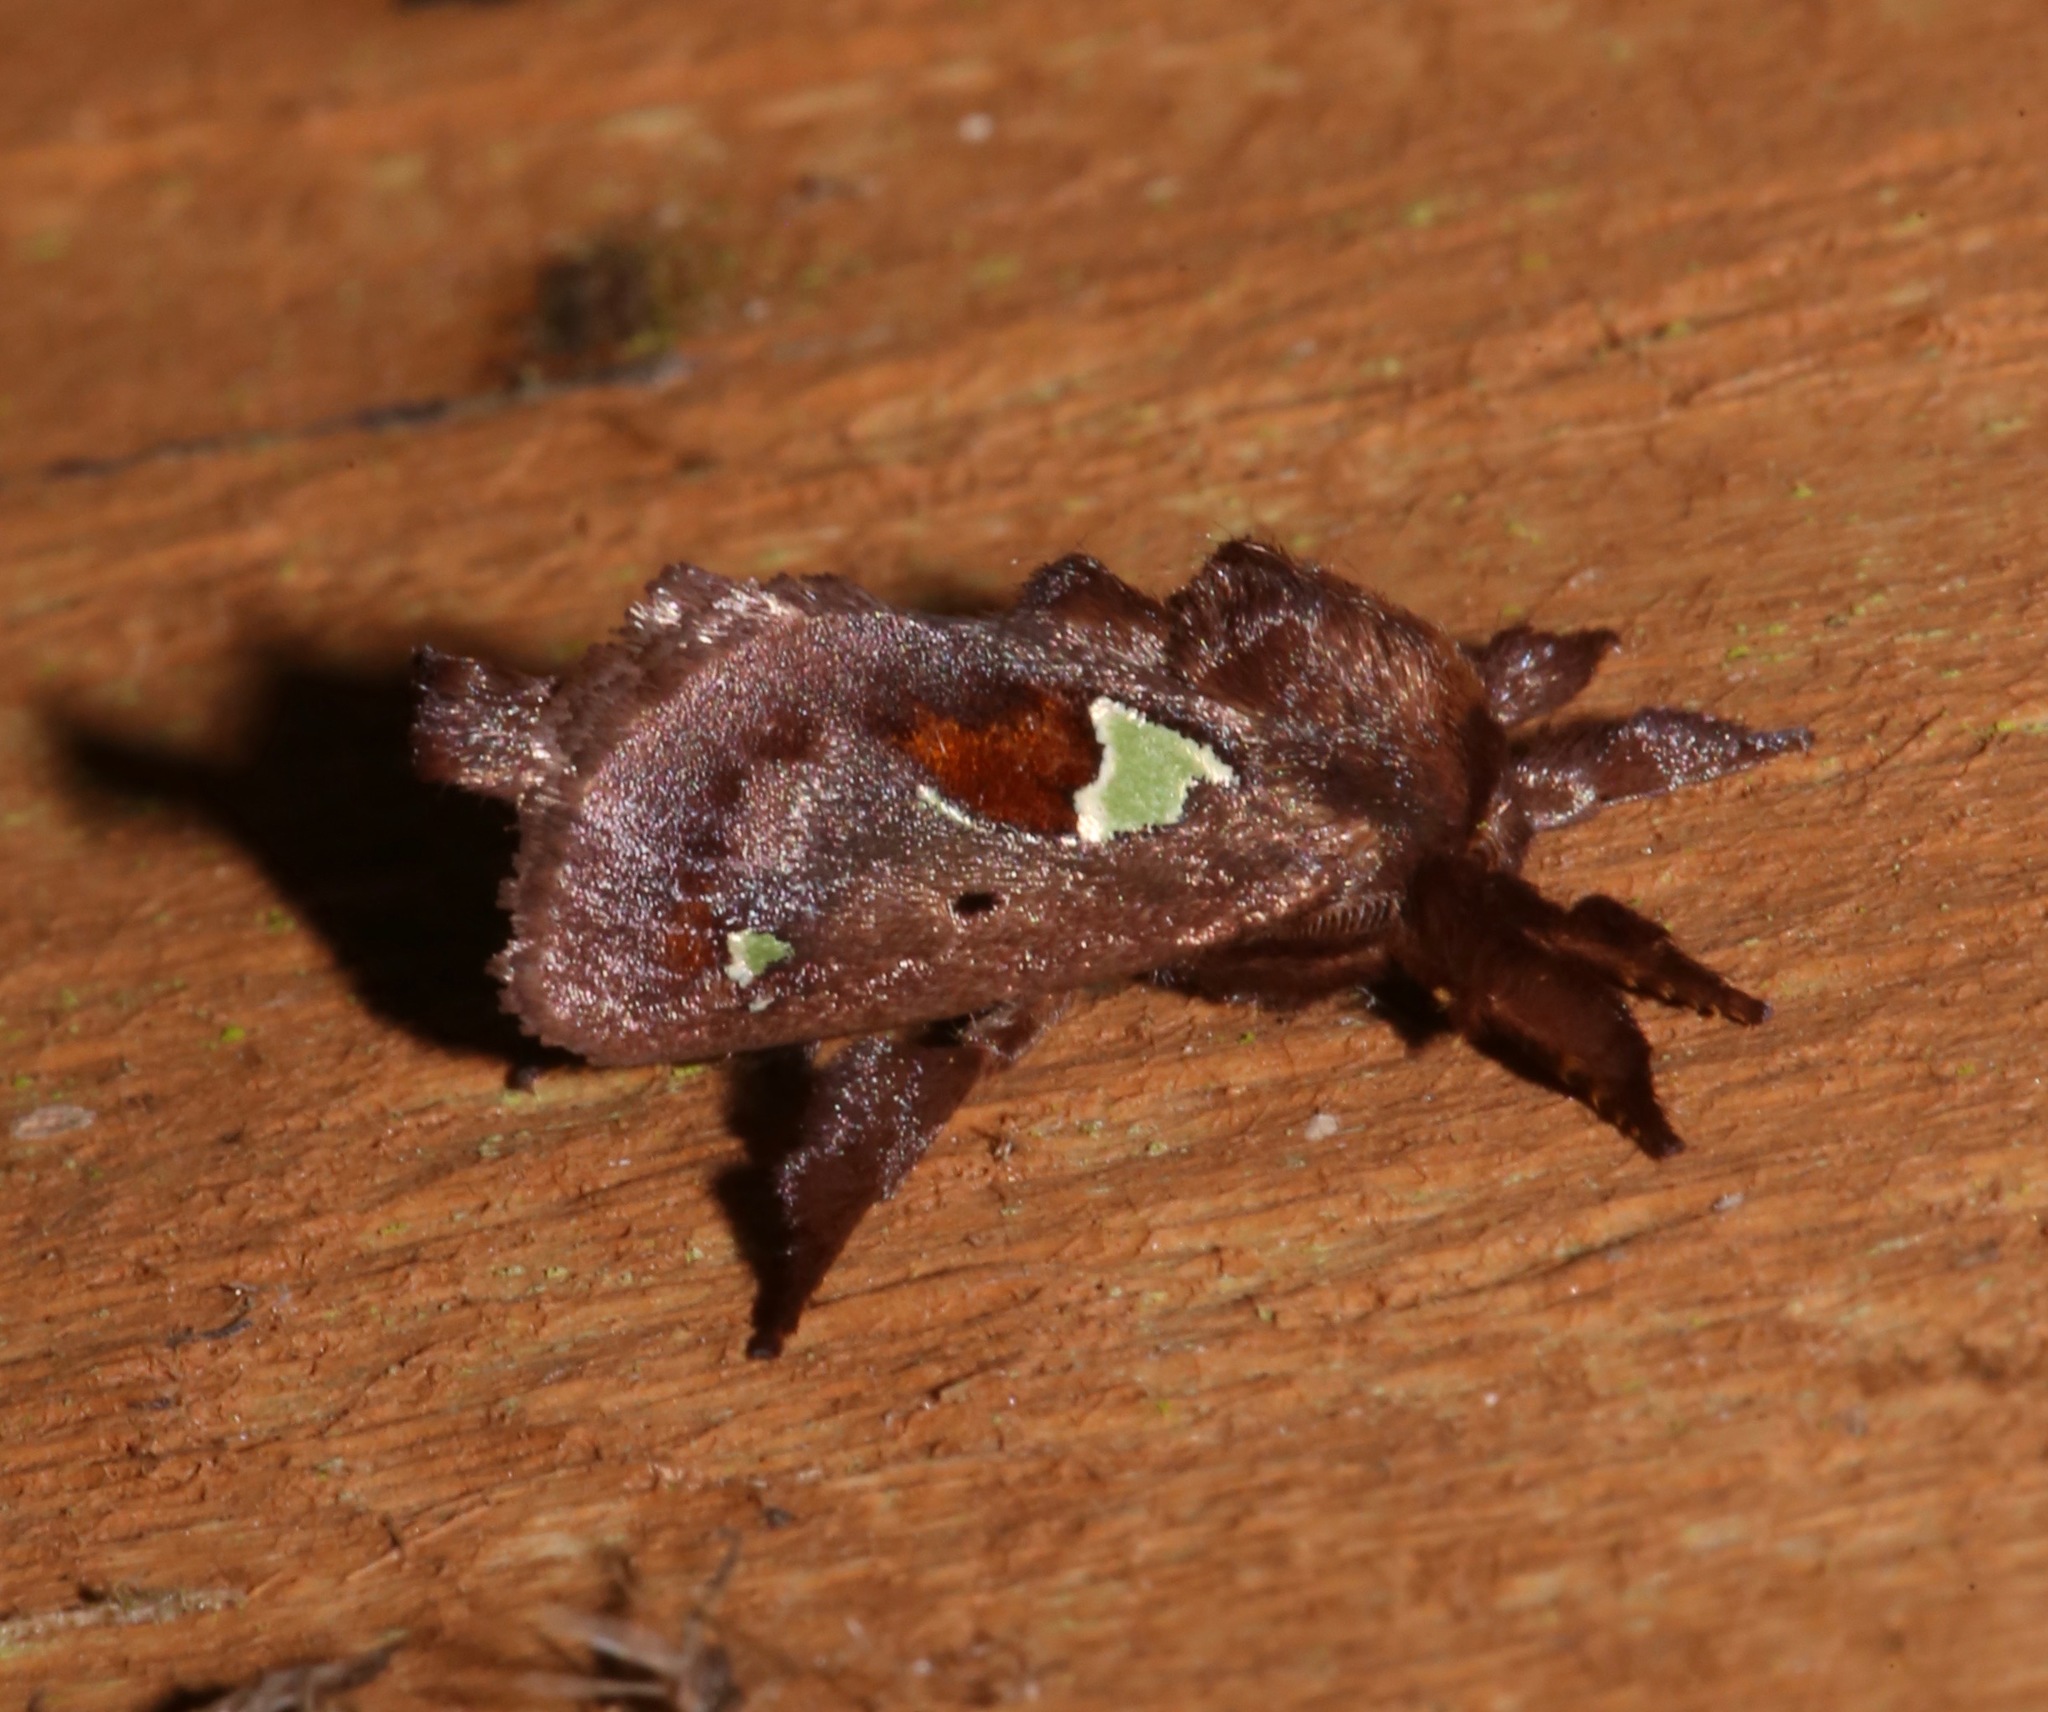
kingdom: Animalia
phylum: Arthropoda
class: Insecta
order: Lepidoptera
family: Limacodidae
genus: Euclea
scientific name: Euclea delphinii
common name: Spiny oak-slug moth
